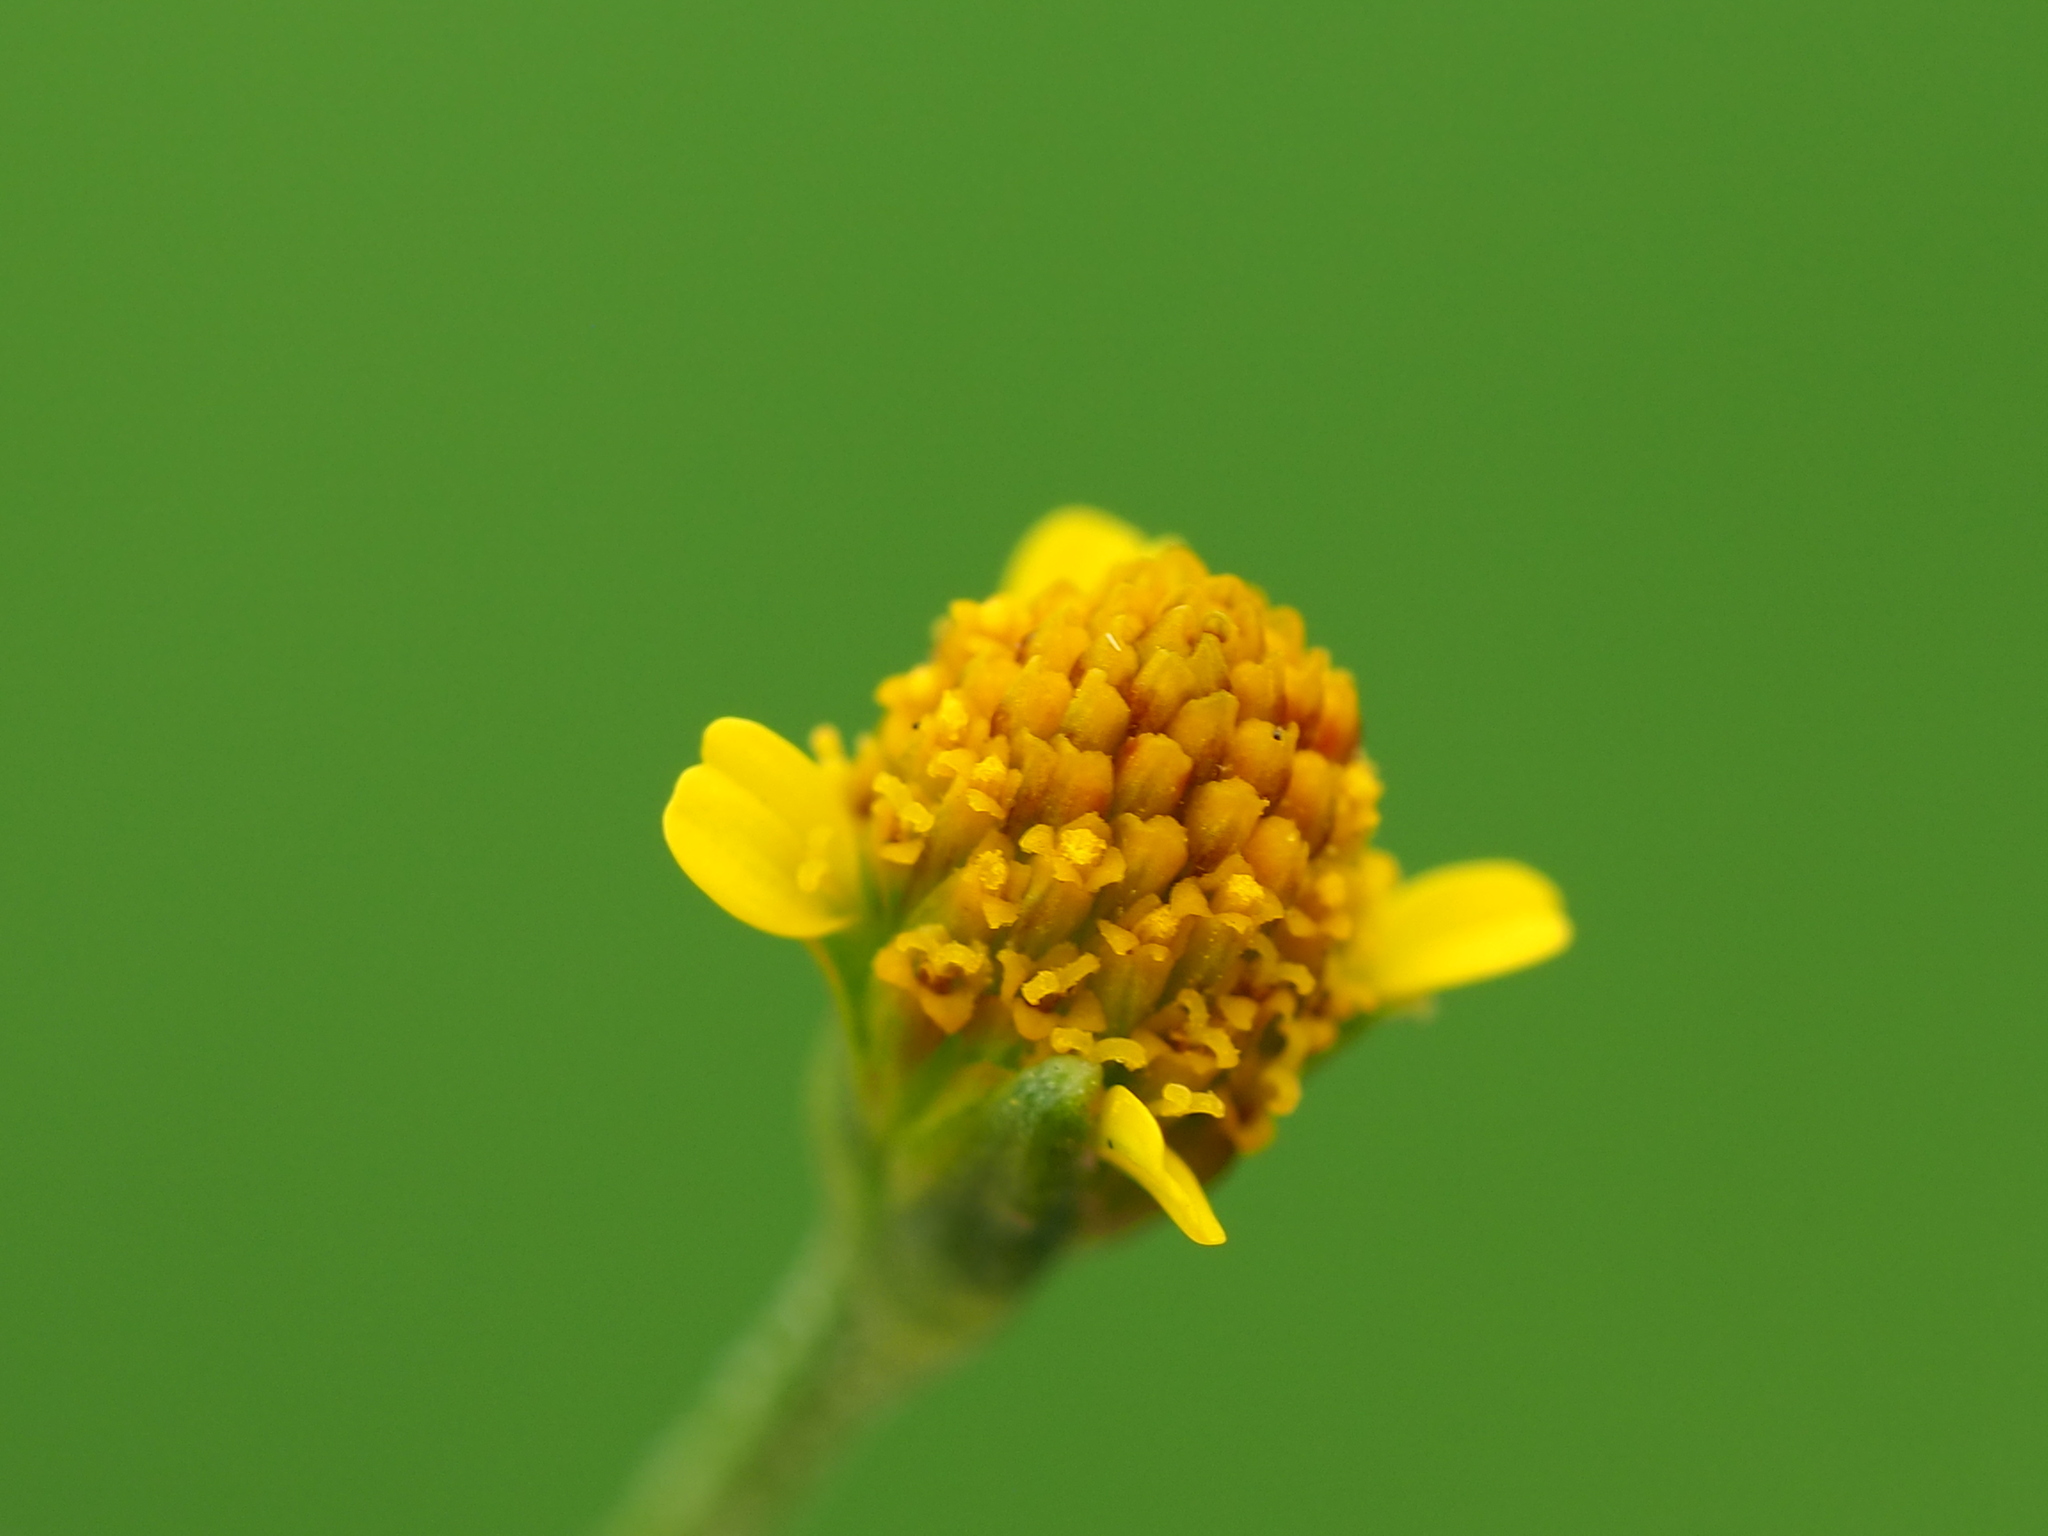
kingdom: Plantae
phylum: Tracheophyta
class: Magnoliopsida
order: Asterales
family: Asteraceae
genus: Acmella
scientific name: Acmella uliginosa
